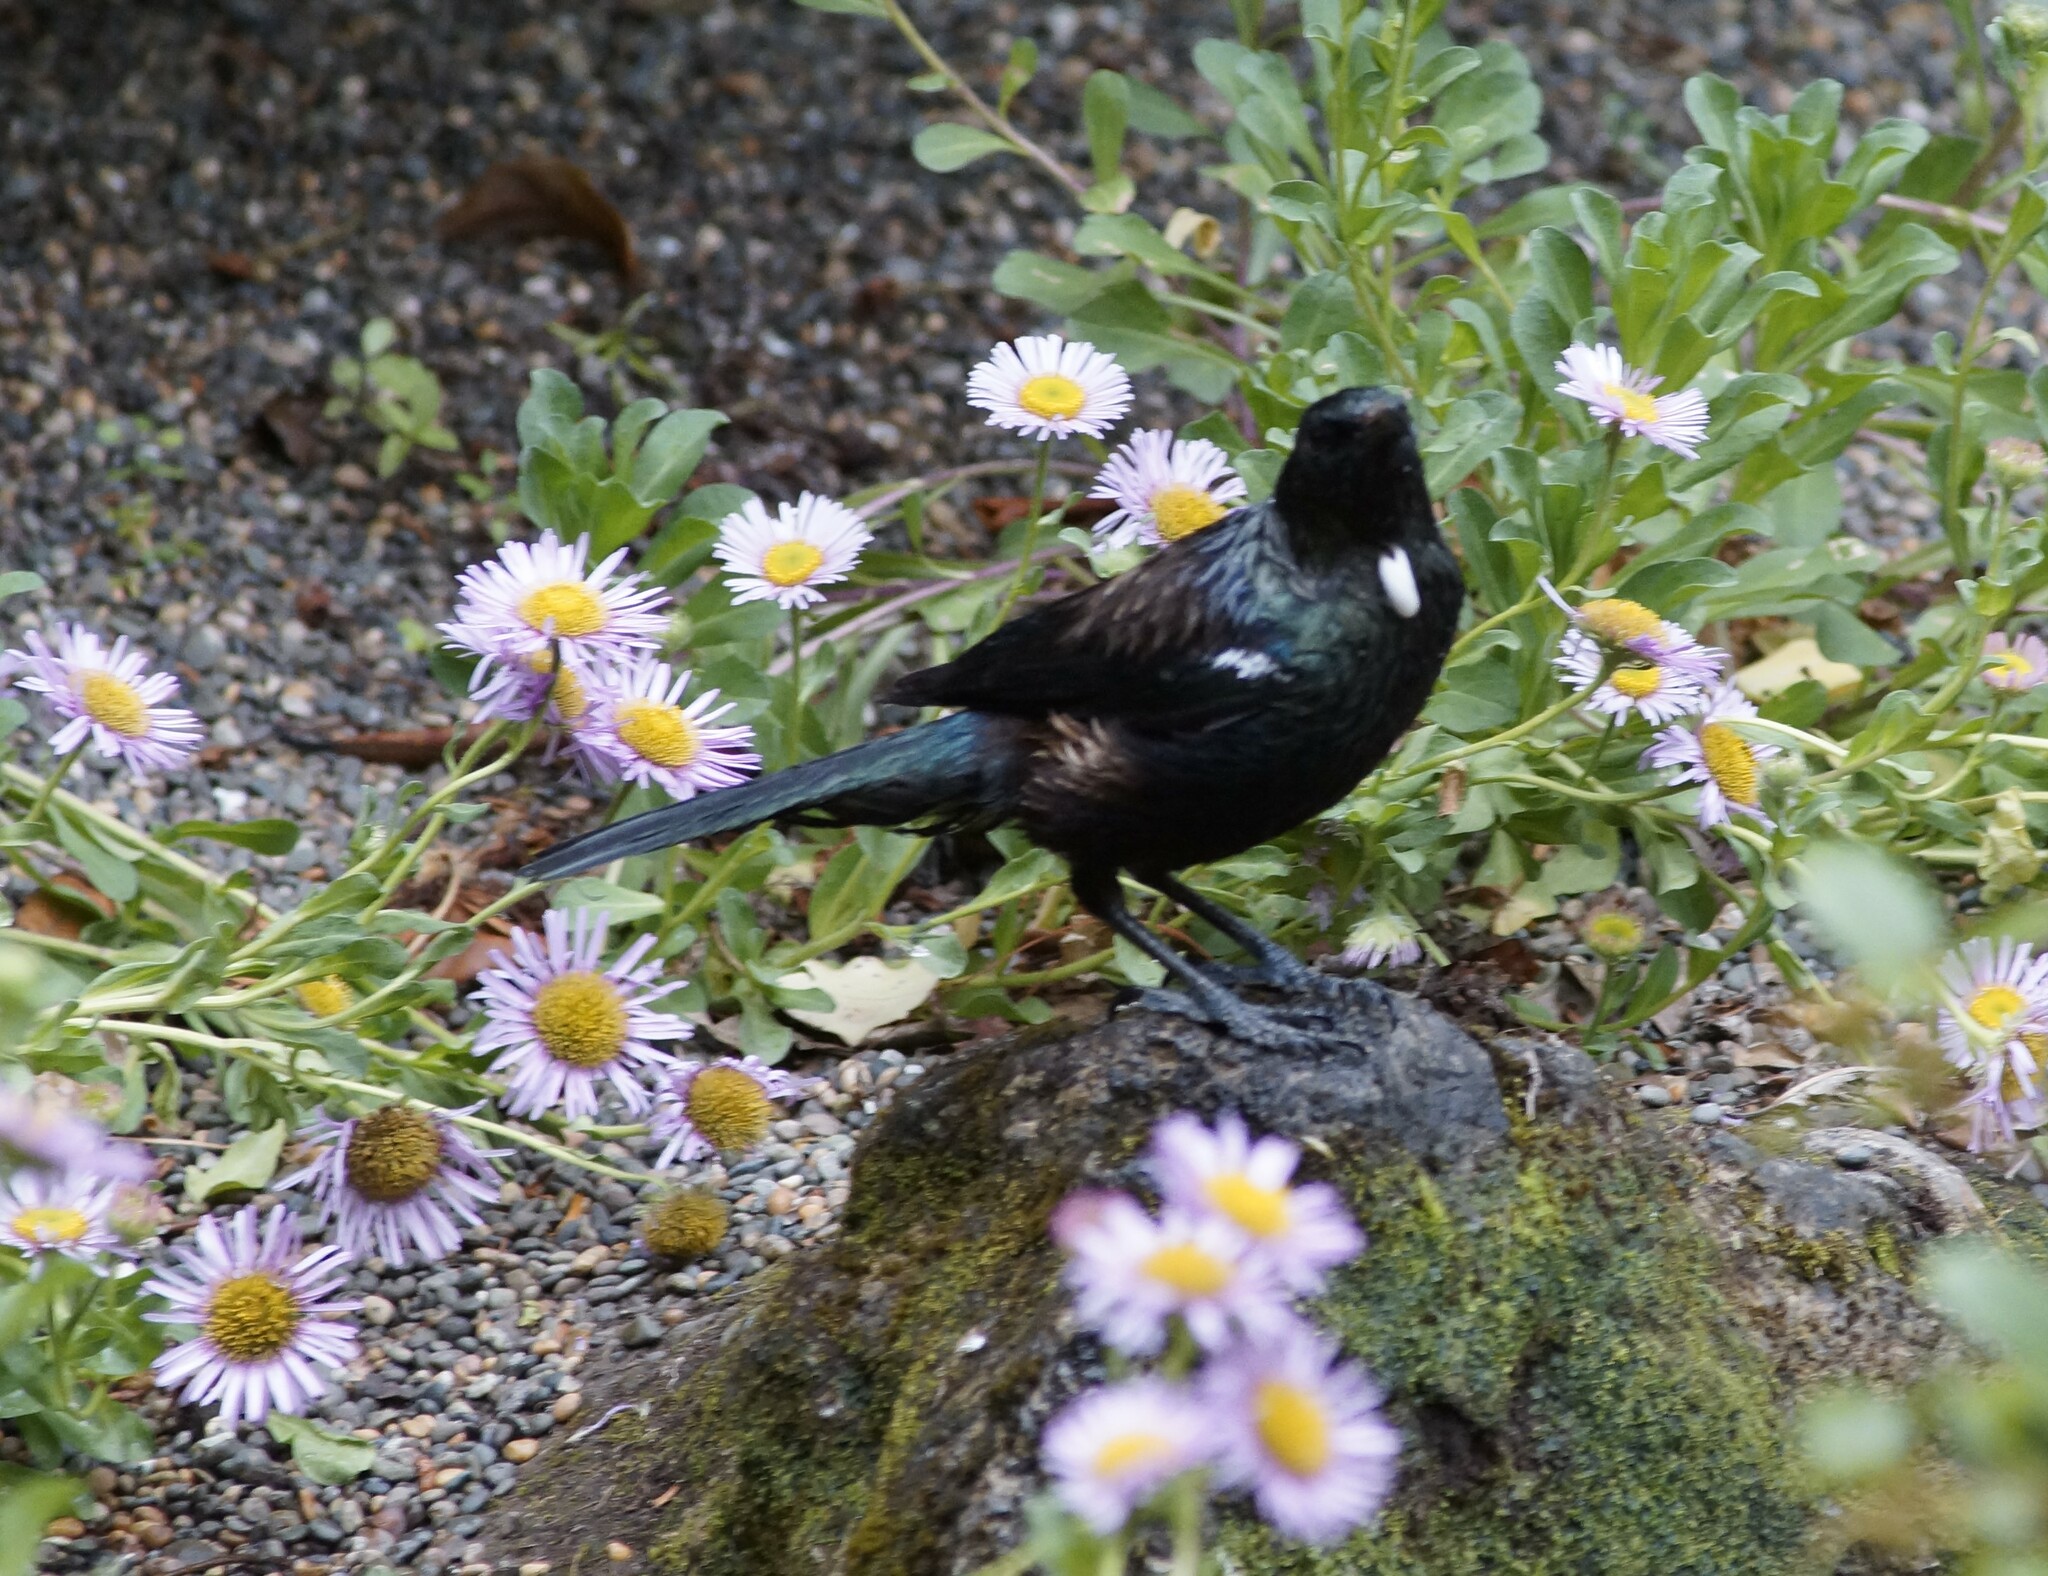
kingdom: Animalia
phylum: Chordata
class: Aves
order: Passeriformes
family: Meliphagidae
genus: Prosthemadera
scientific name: Prosthemadera novaeseelandiae
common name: Tui
